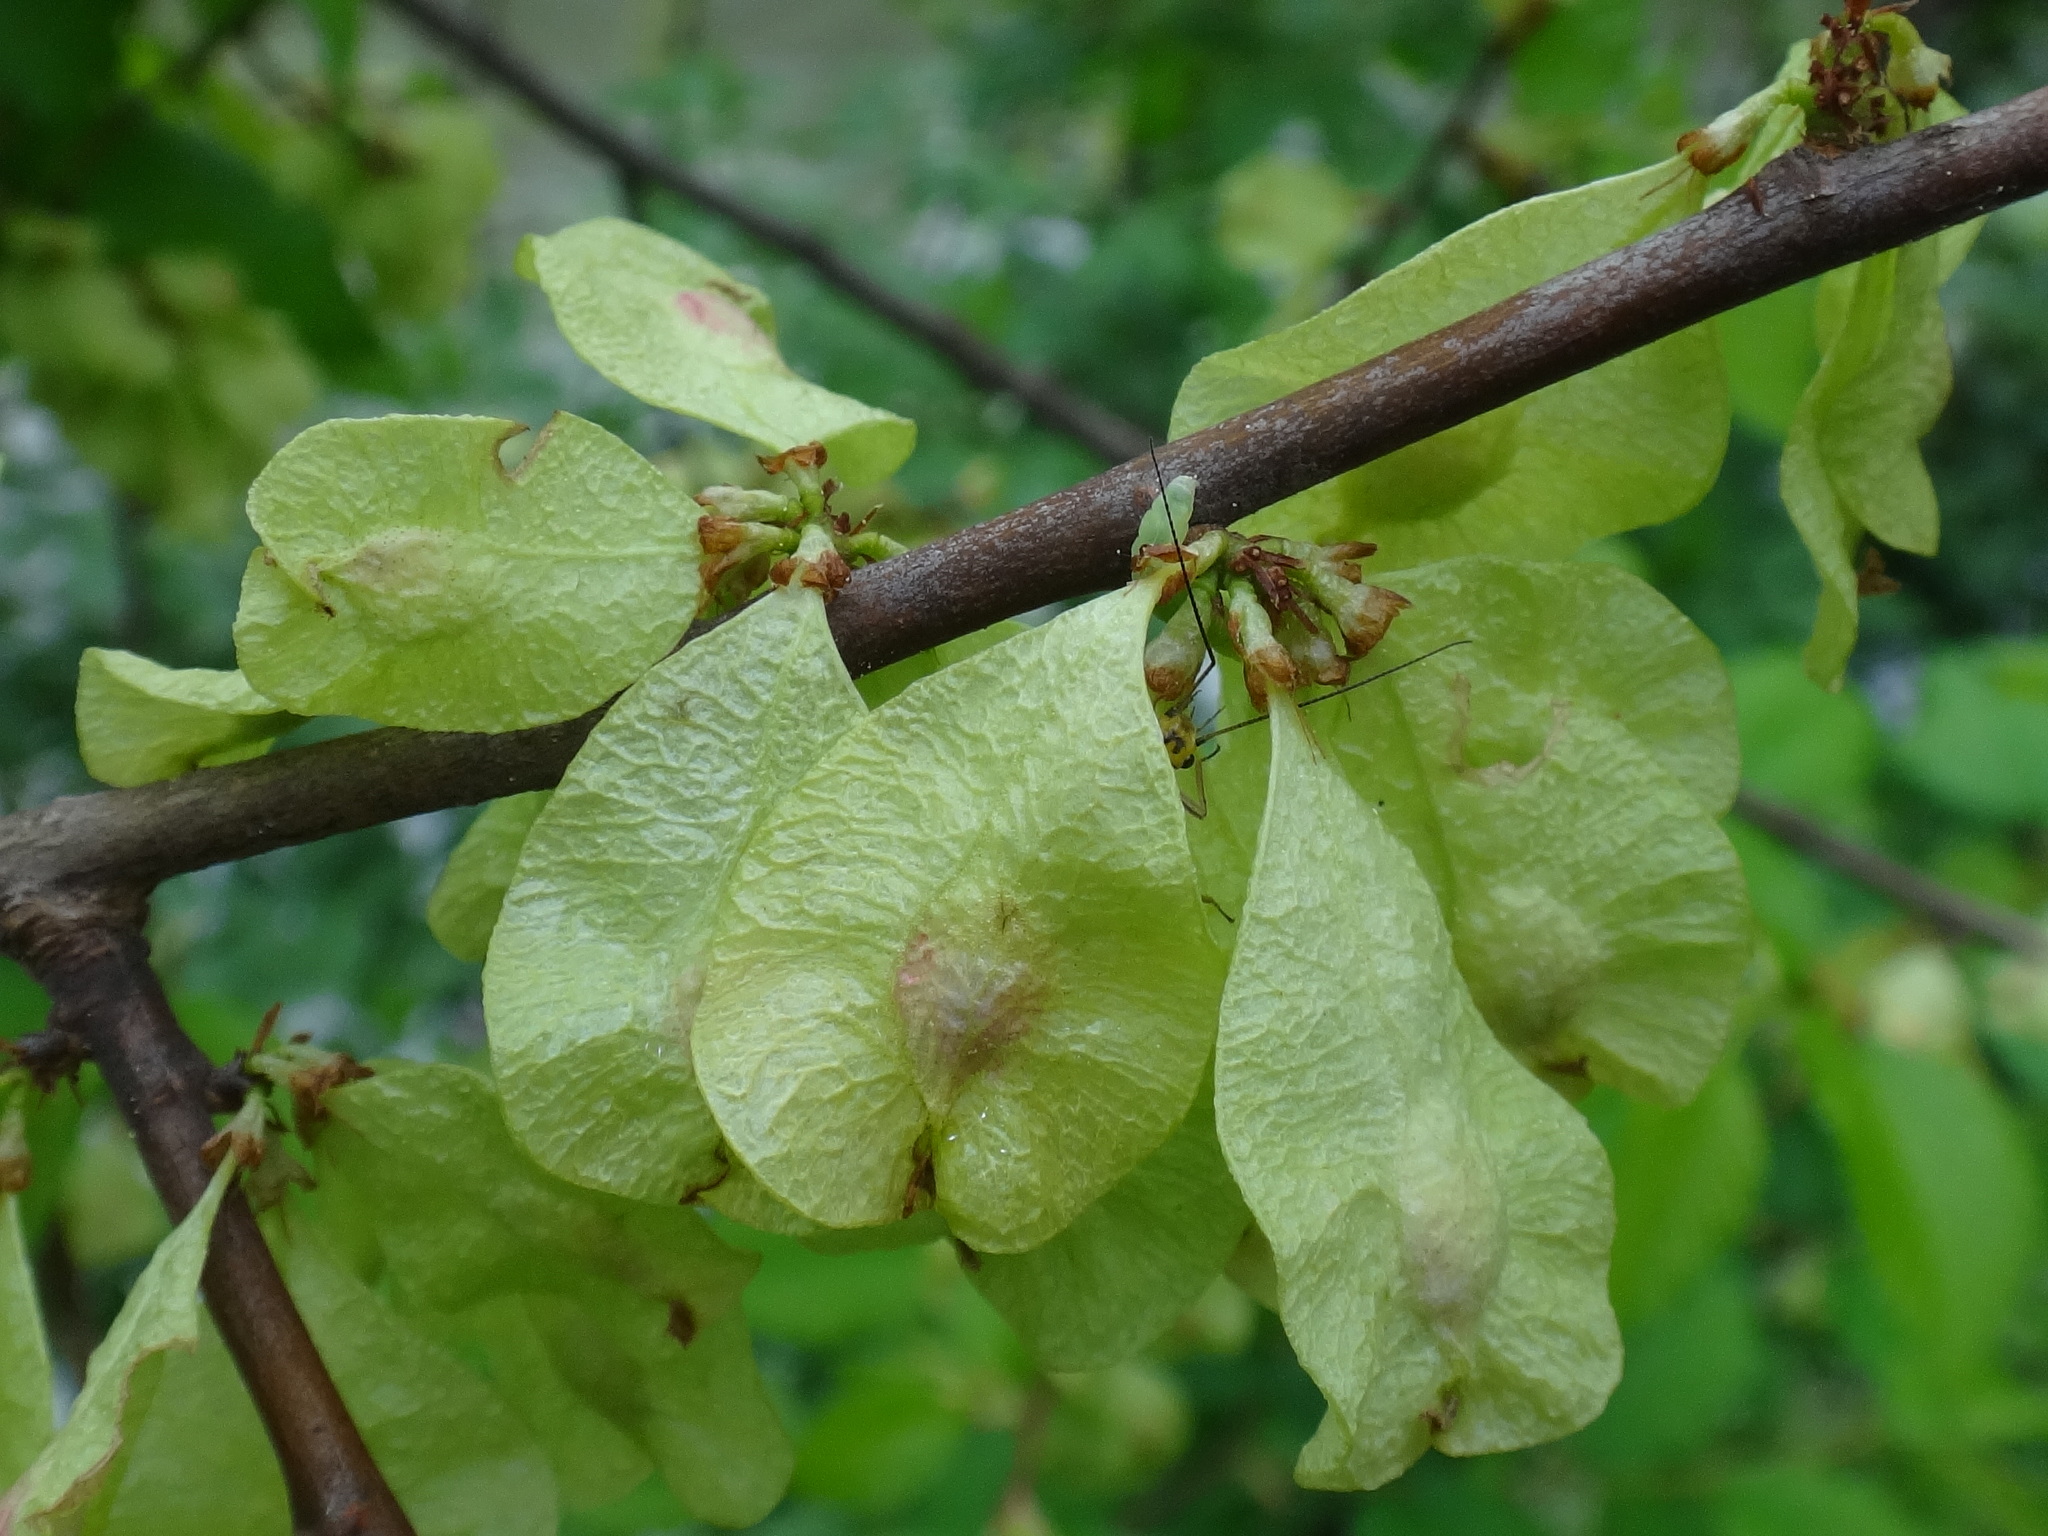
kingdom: Plantae
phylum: Tracheophyta
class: Magnoliopsida
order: Rosales
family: Ulmaceae
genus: Ulmus
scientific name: Ulmus minor
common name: Small-leaved elm
